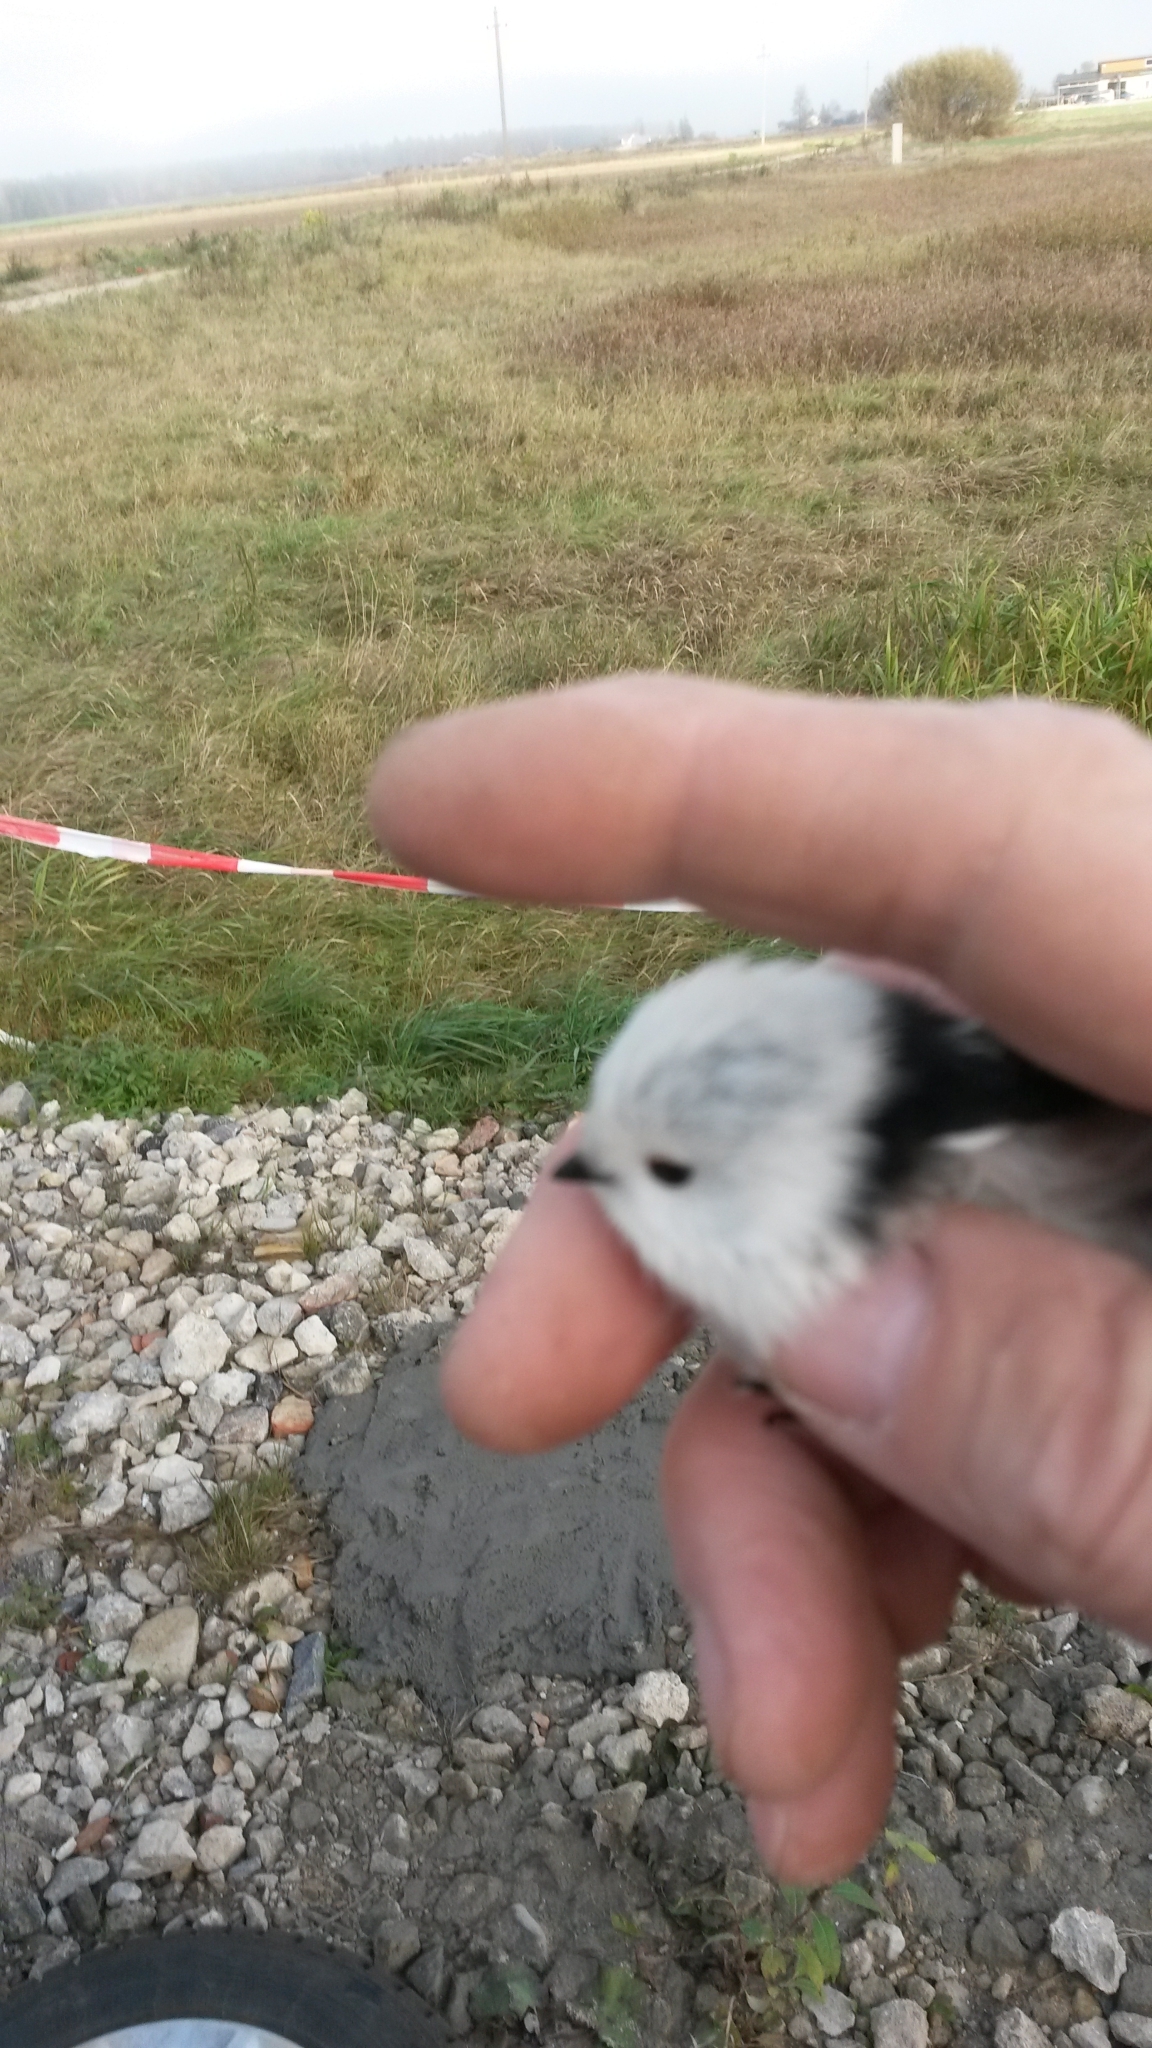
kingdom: Animalia
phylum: Chordata
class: Aves
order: Passeriformes
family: Aegithalidae
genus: Aegithalos
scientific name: Aegithalos caudatus
